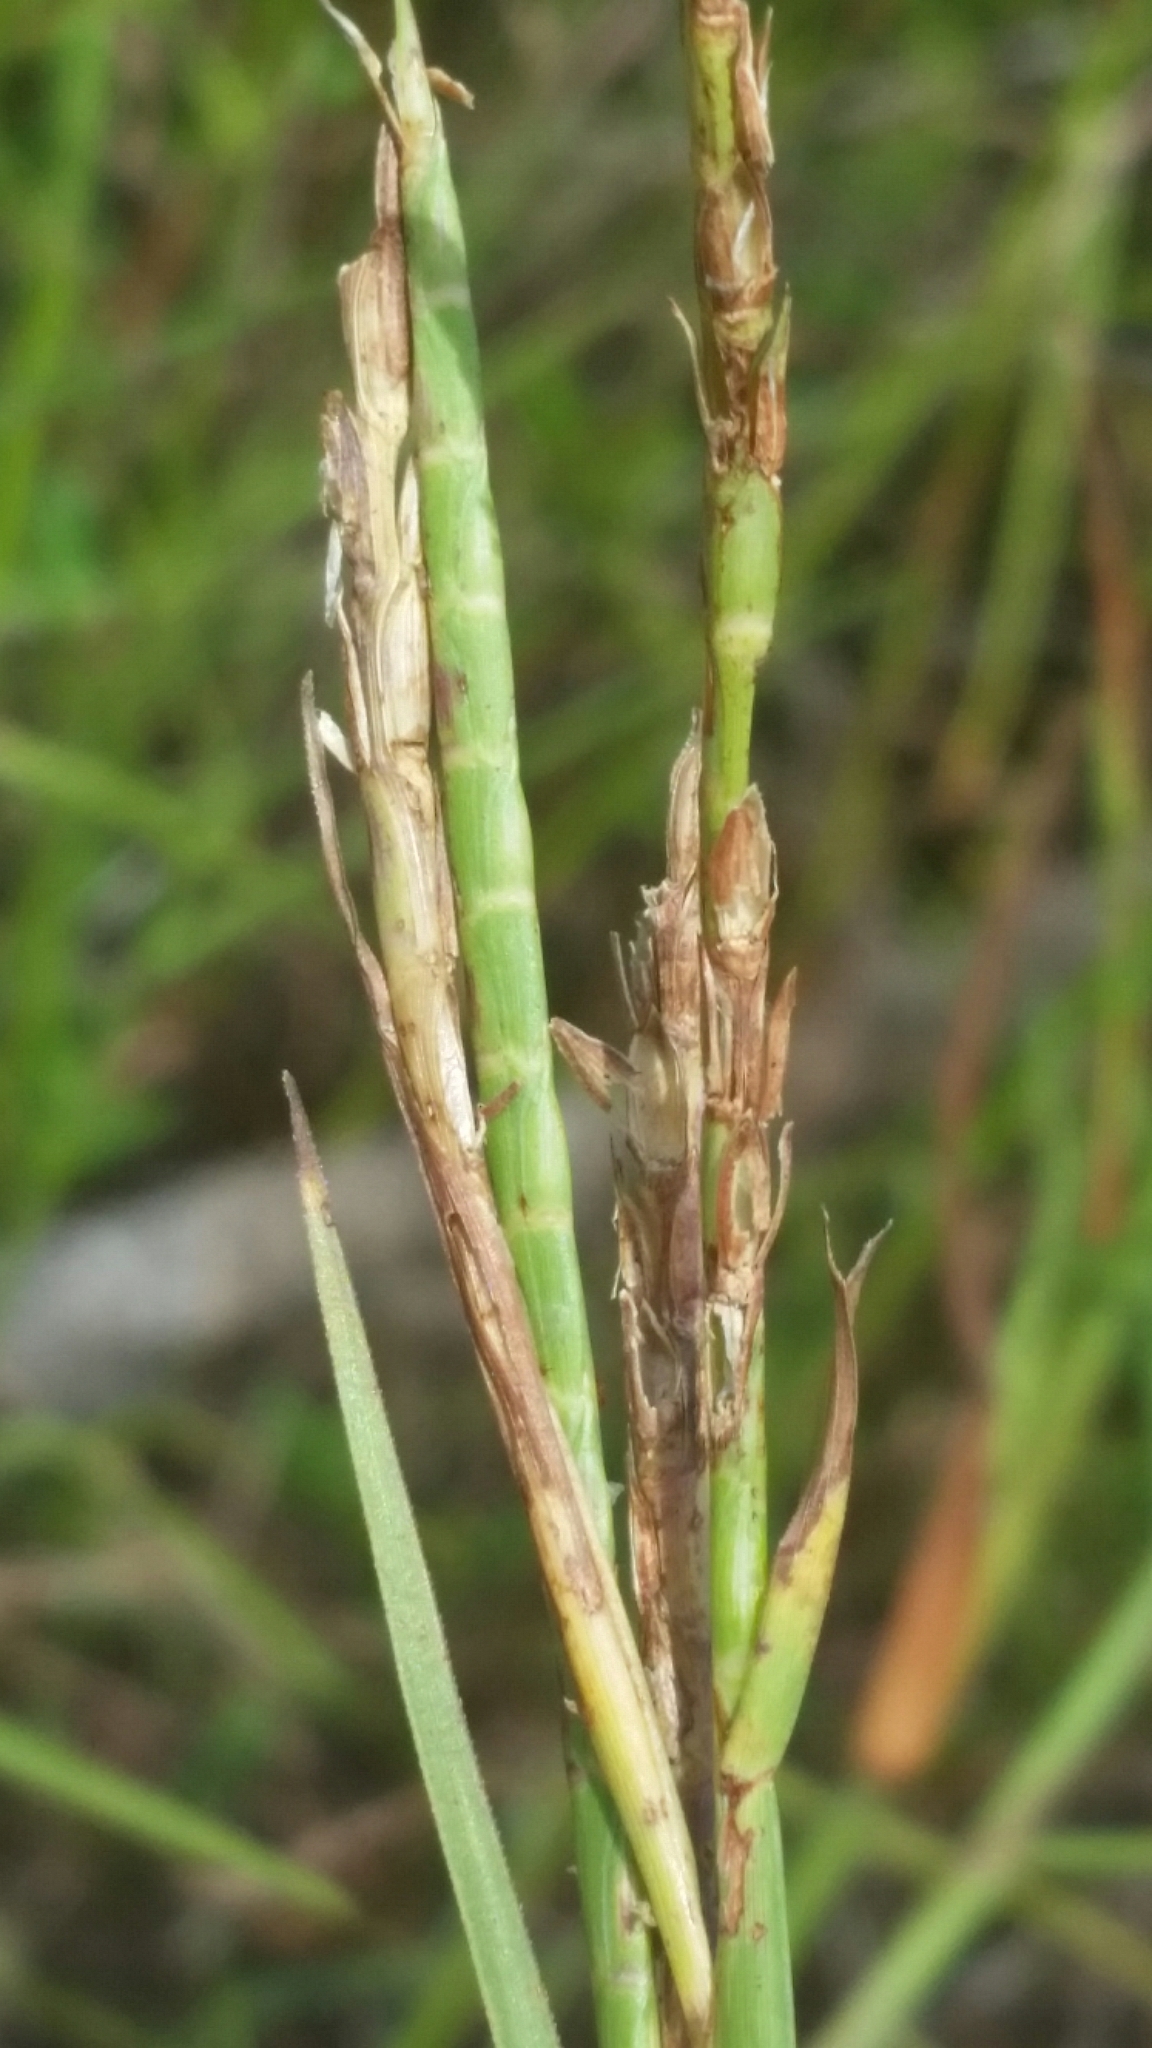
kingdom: Plantae
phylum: Tracheophyta
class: Liliopsida
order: Poales
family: Poaceae
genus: Hemarthria
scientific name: Hemarthria altissima
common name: African jointgrass
